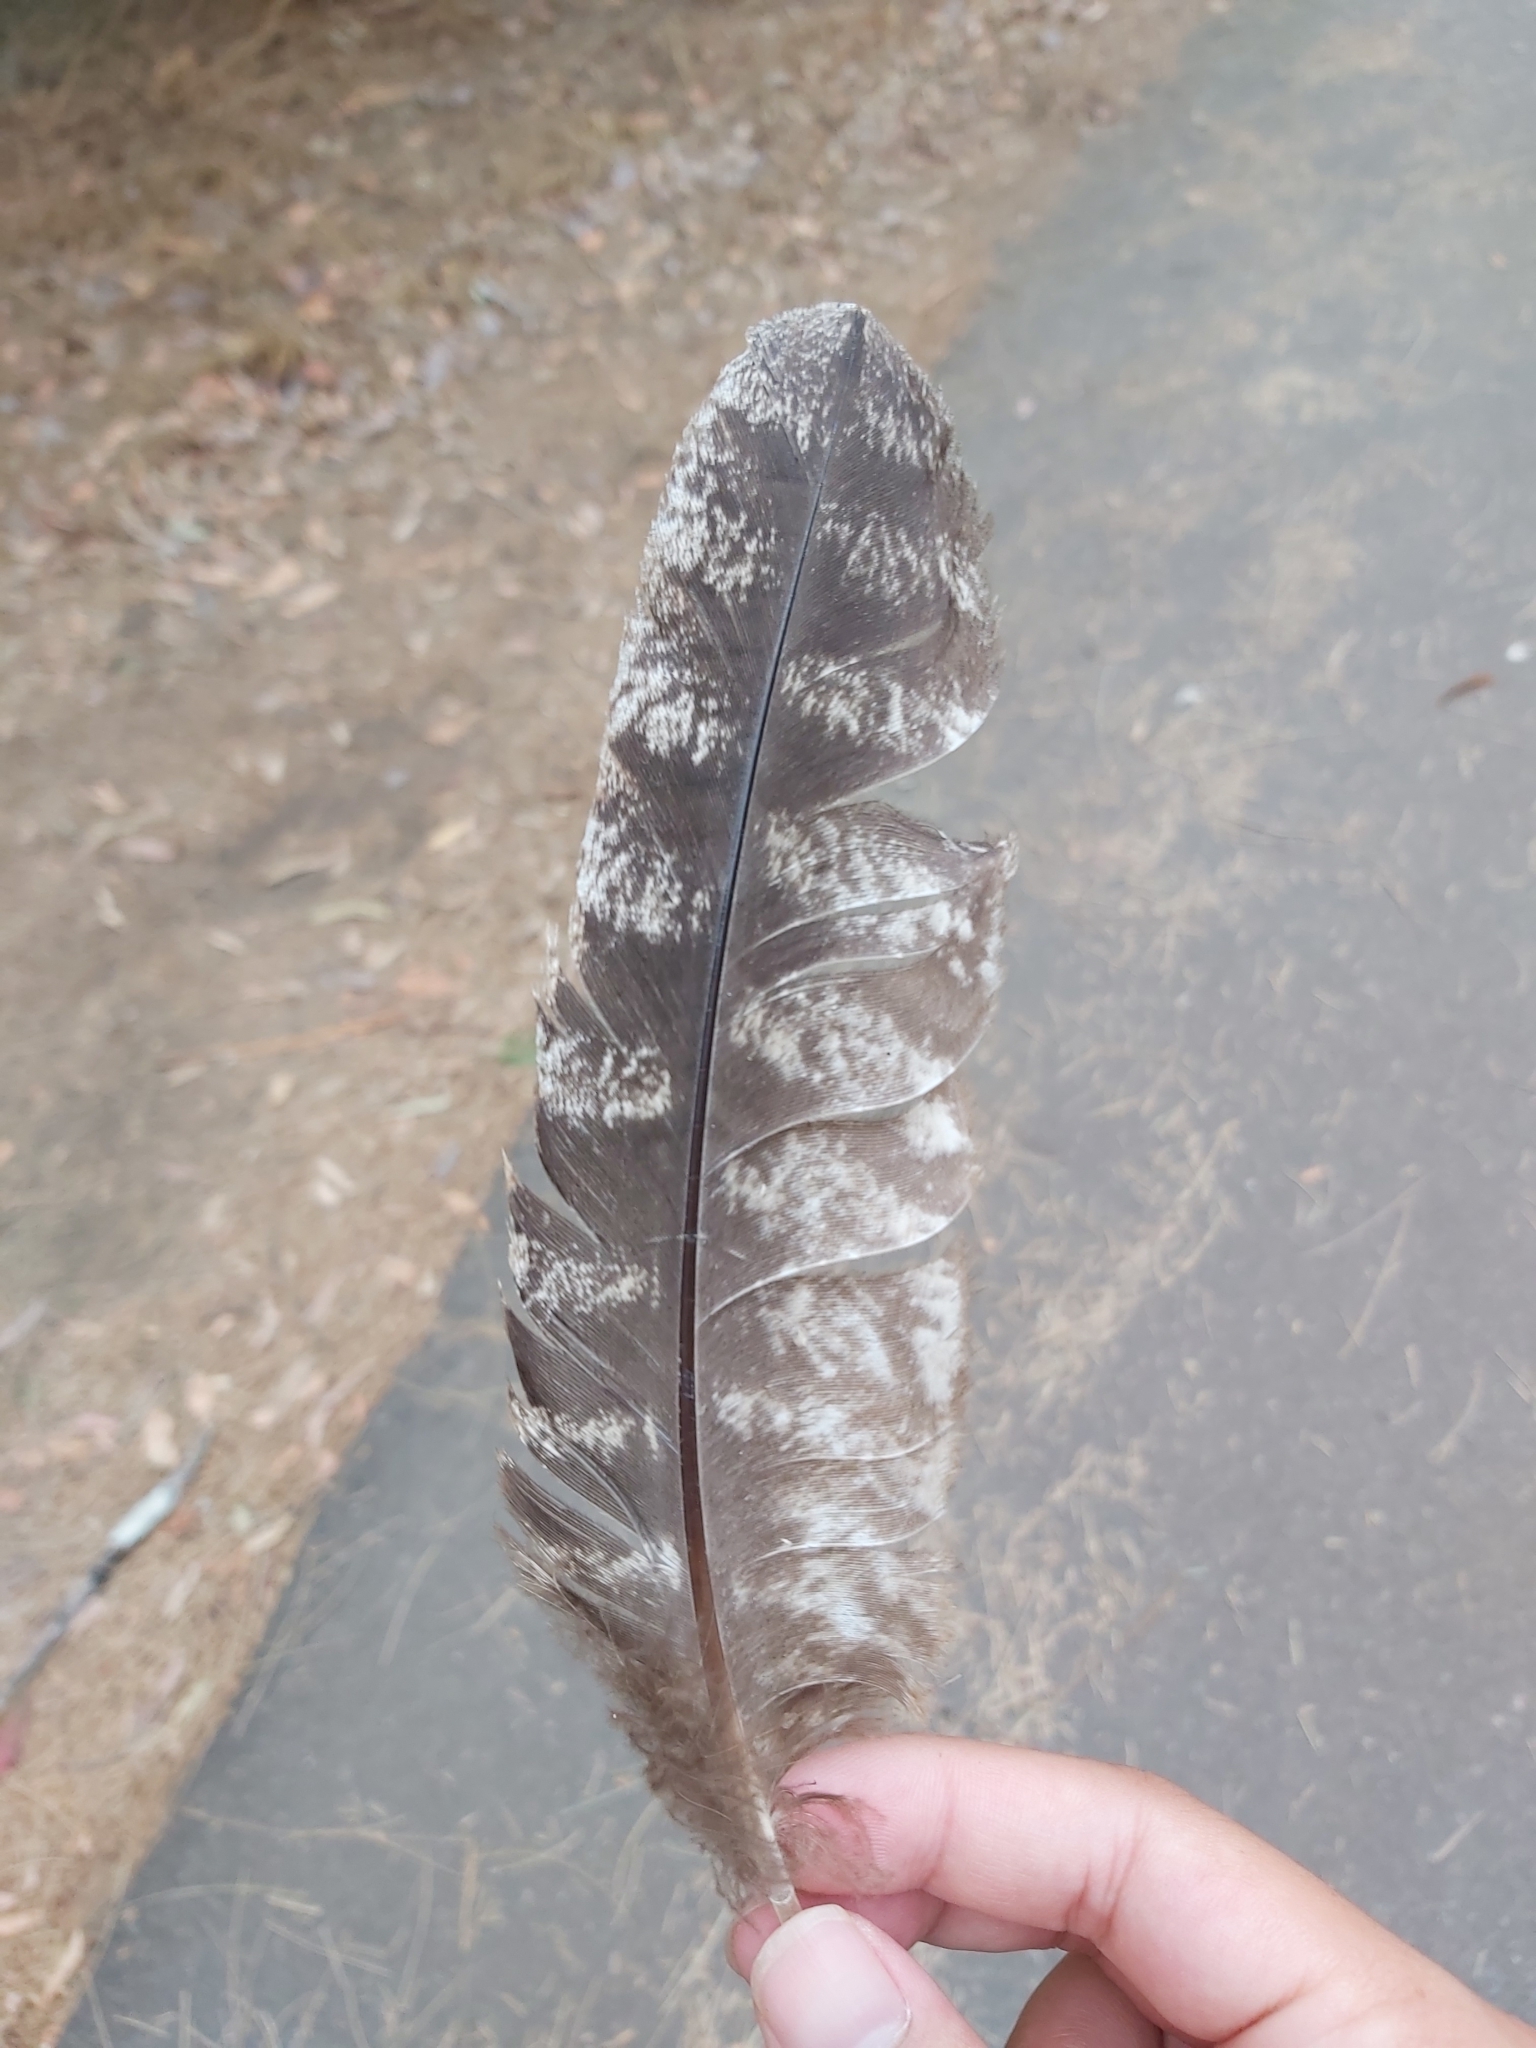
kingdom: Animalia
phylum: Chordata
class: Aves
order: Caprimulgiformes
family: Podargidae
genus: Podargus
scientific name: Podargus strigoides
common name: Tawny frogmouth
